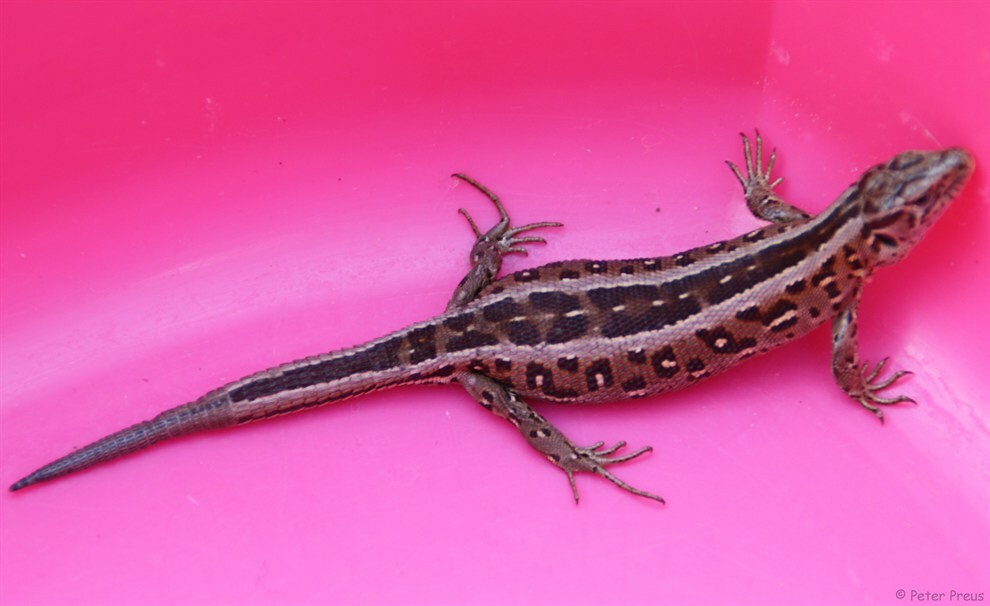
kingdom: Animalia
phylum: Chordata
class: Squamata
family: Lacertidae
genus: Lacerta
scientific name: Lacerta agilis
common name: Sand lizard
